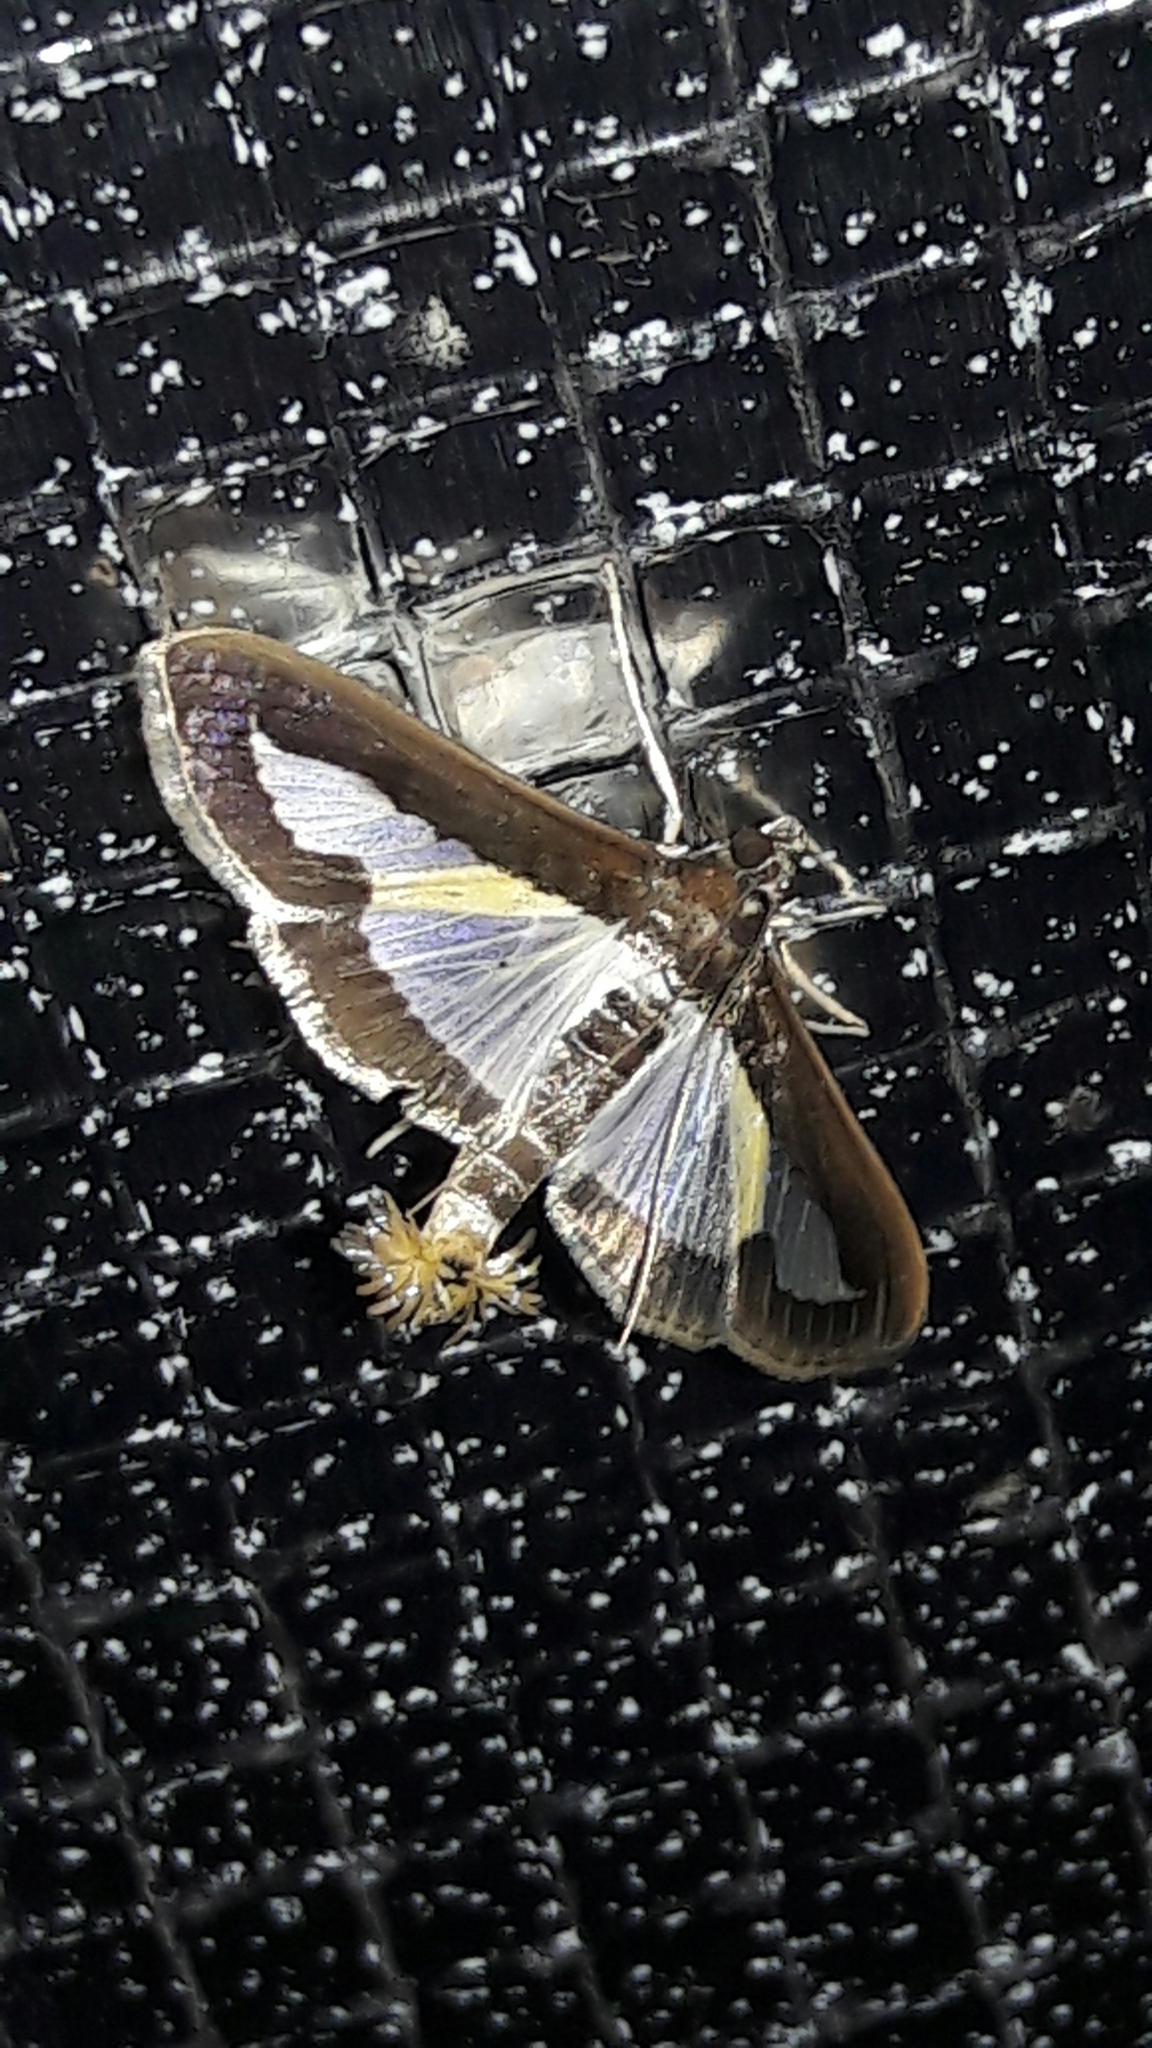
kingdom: Animalia
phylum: Arthropoda
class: Insecta
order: Lepidoptera
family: Crambidae
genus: Diaphania
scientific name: Diaphania elegans
